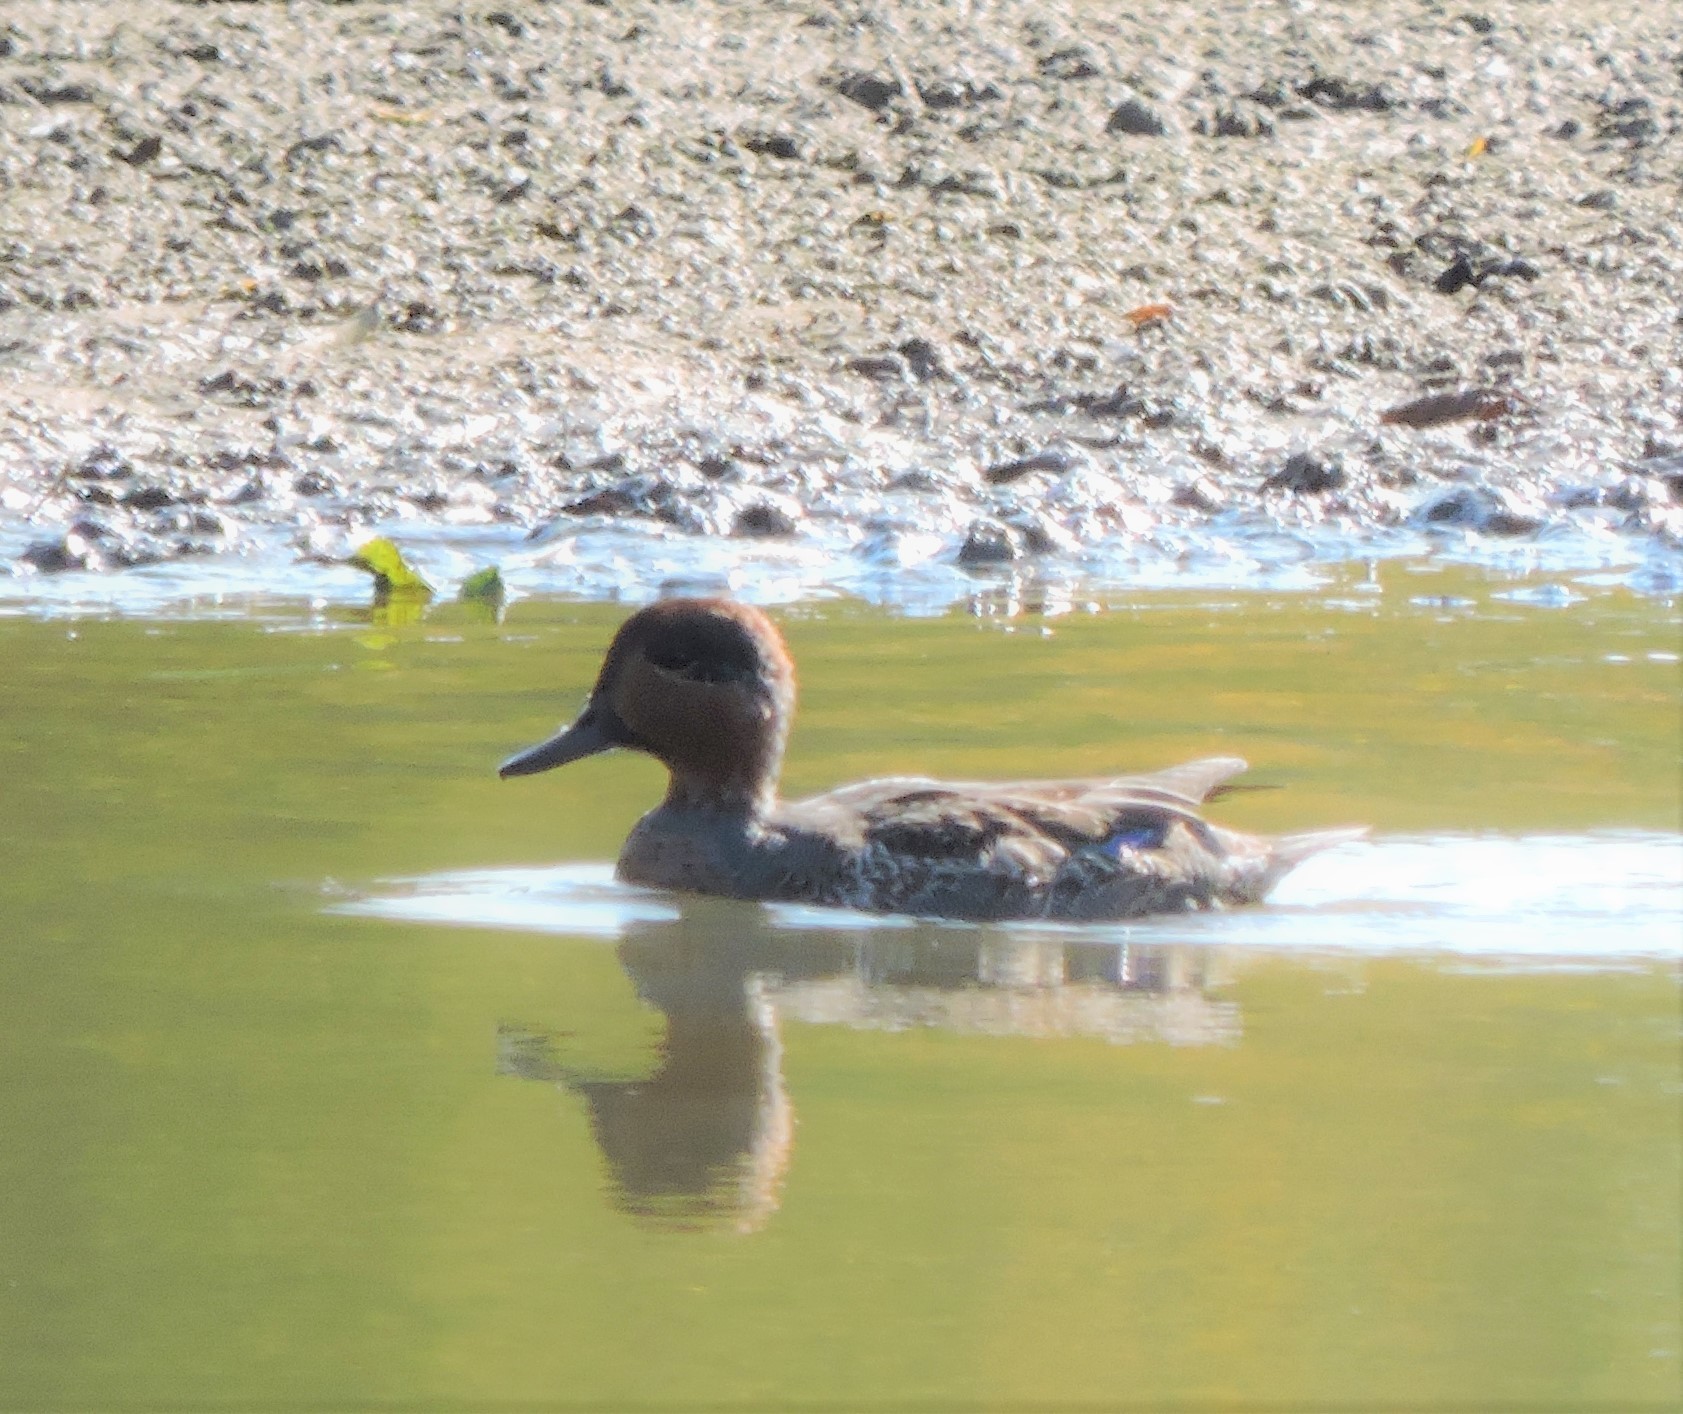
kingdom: Animalia
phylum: Chordata
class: Aves
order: Anseriformes
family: Anatidae
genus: Anas
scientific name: Anas crecca
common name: Eurasian teal
